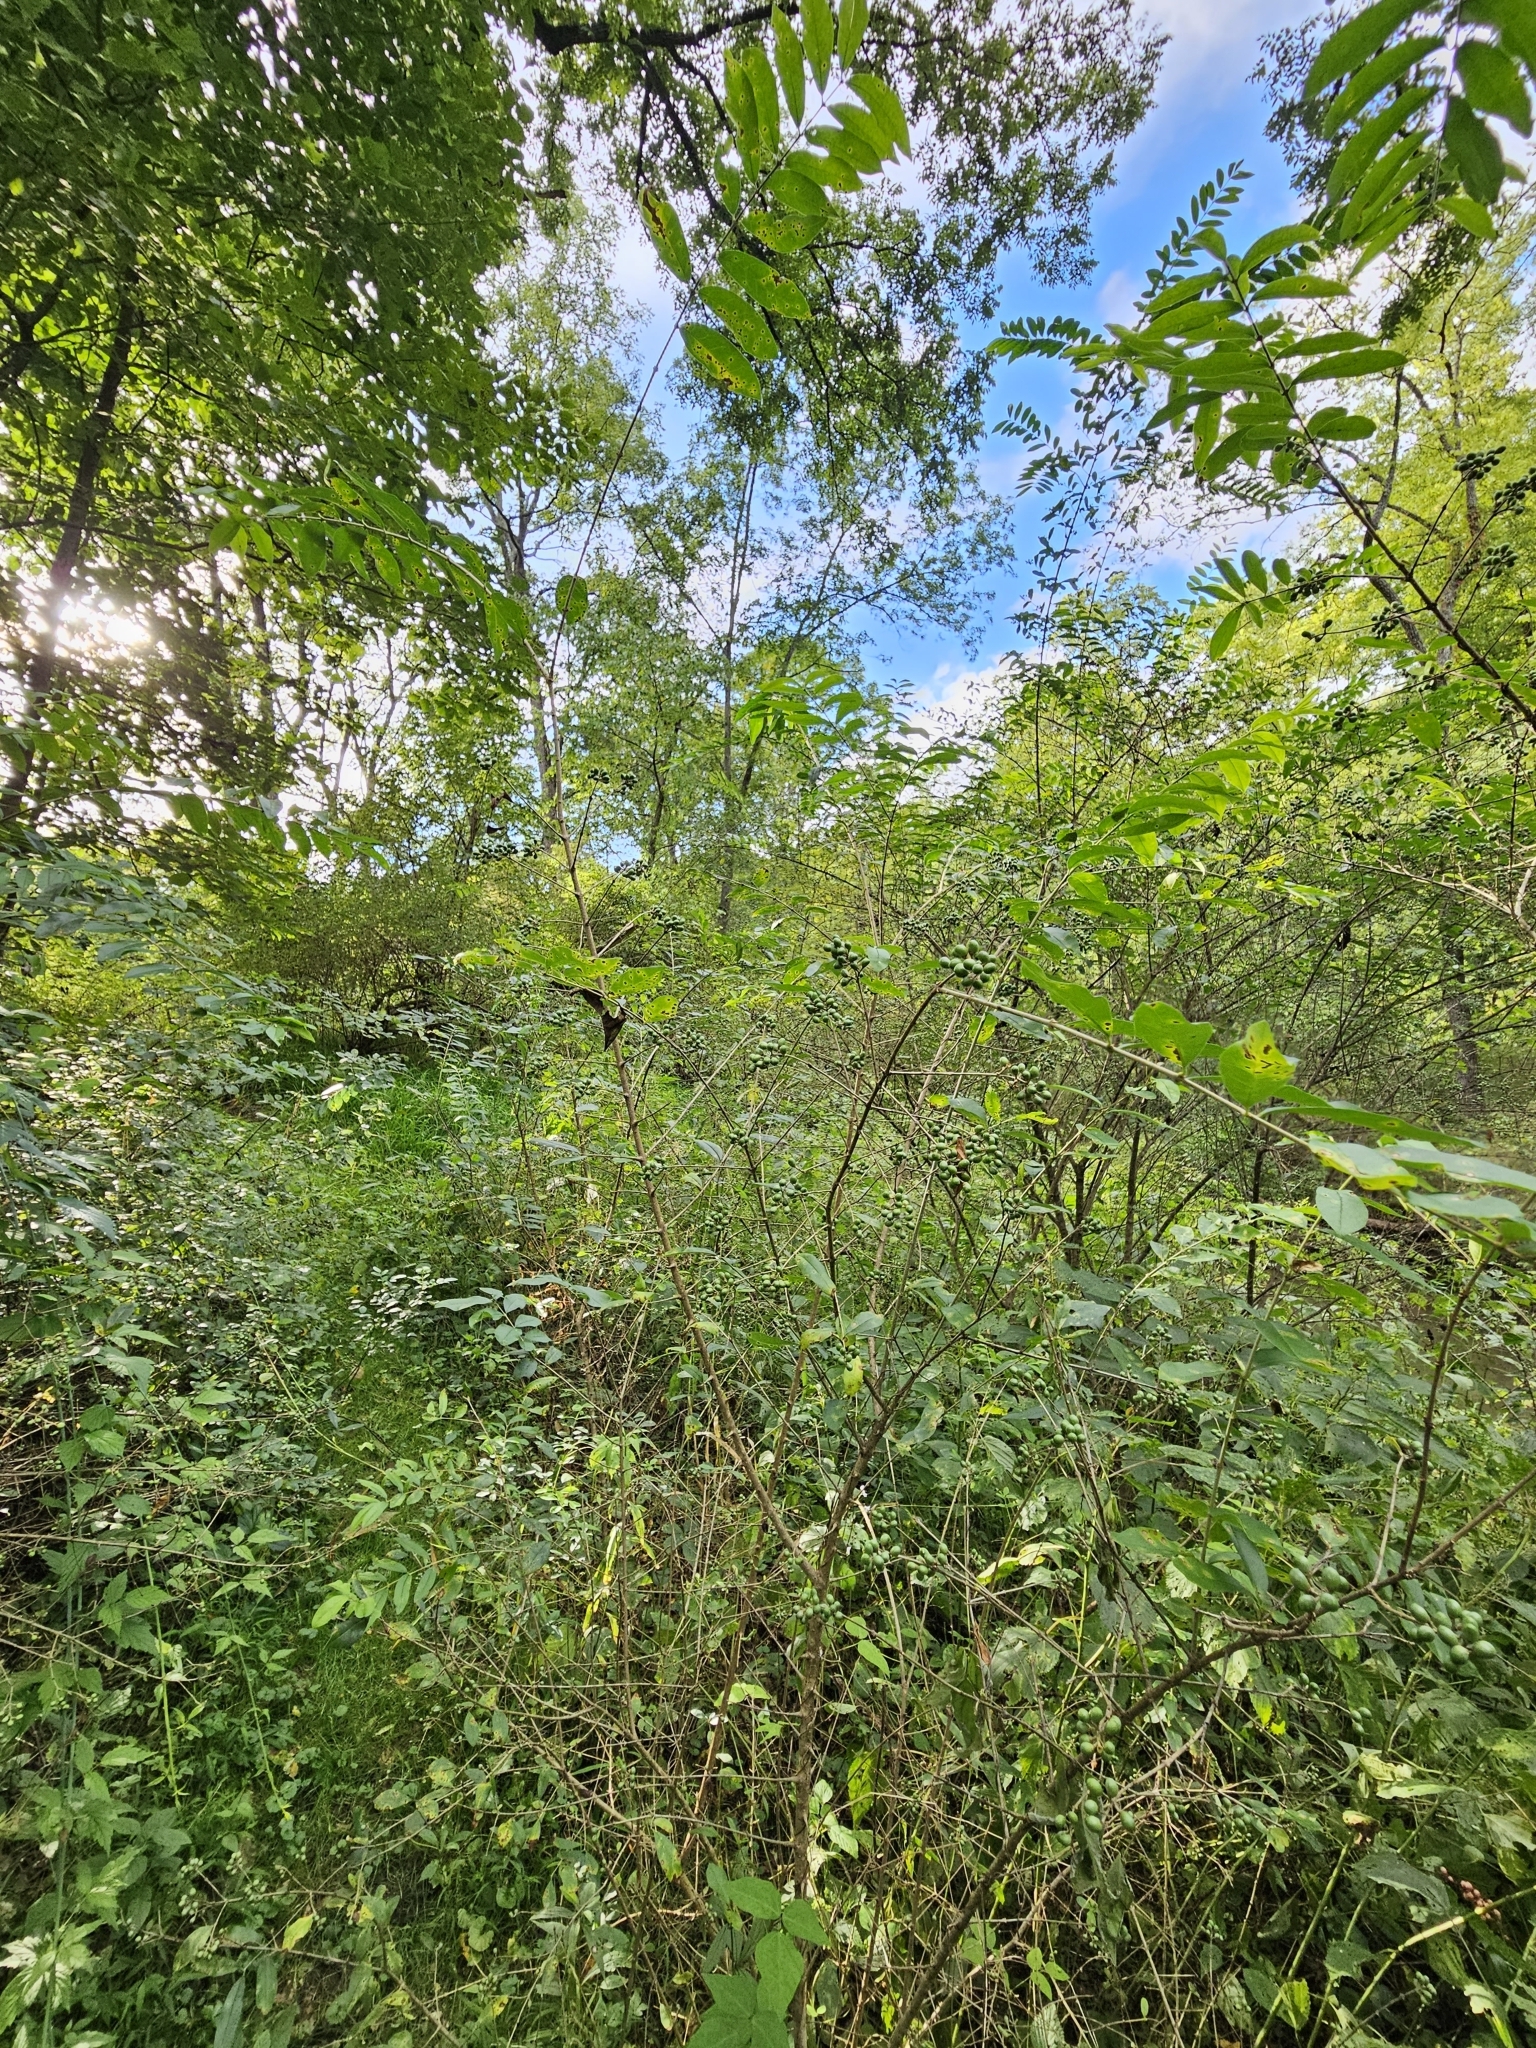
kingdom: Plantae
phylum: Tracheophyta
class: Magnoliopsida
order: Lamiales
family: Oleaceae
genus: Ligustrum
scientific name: Ligustrum obtusifolium
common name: Border privet
